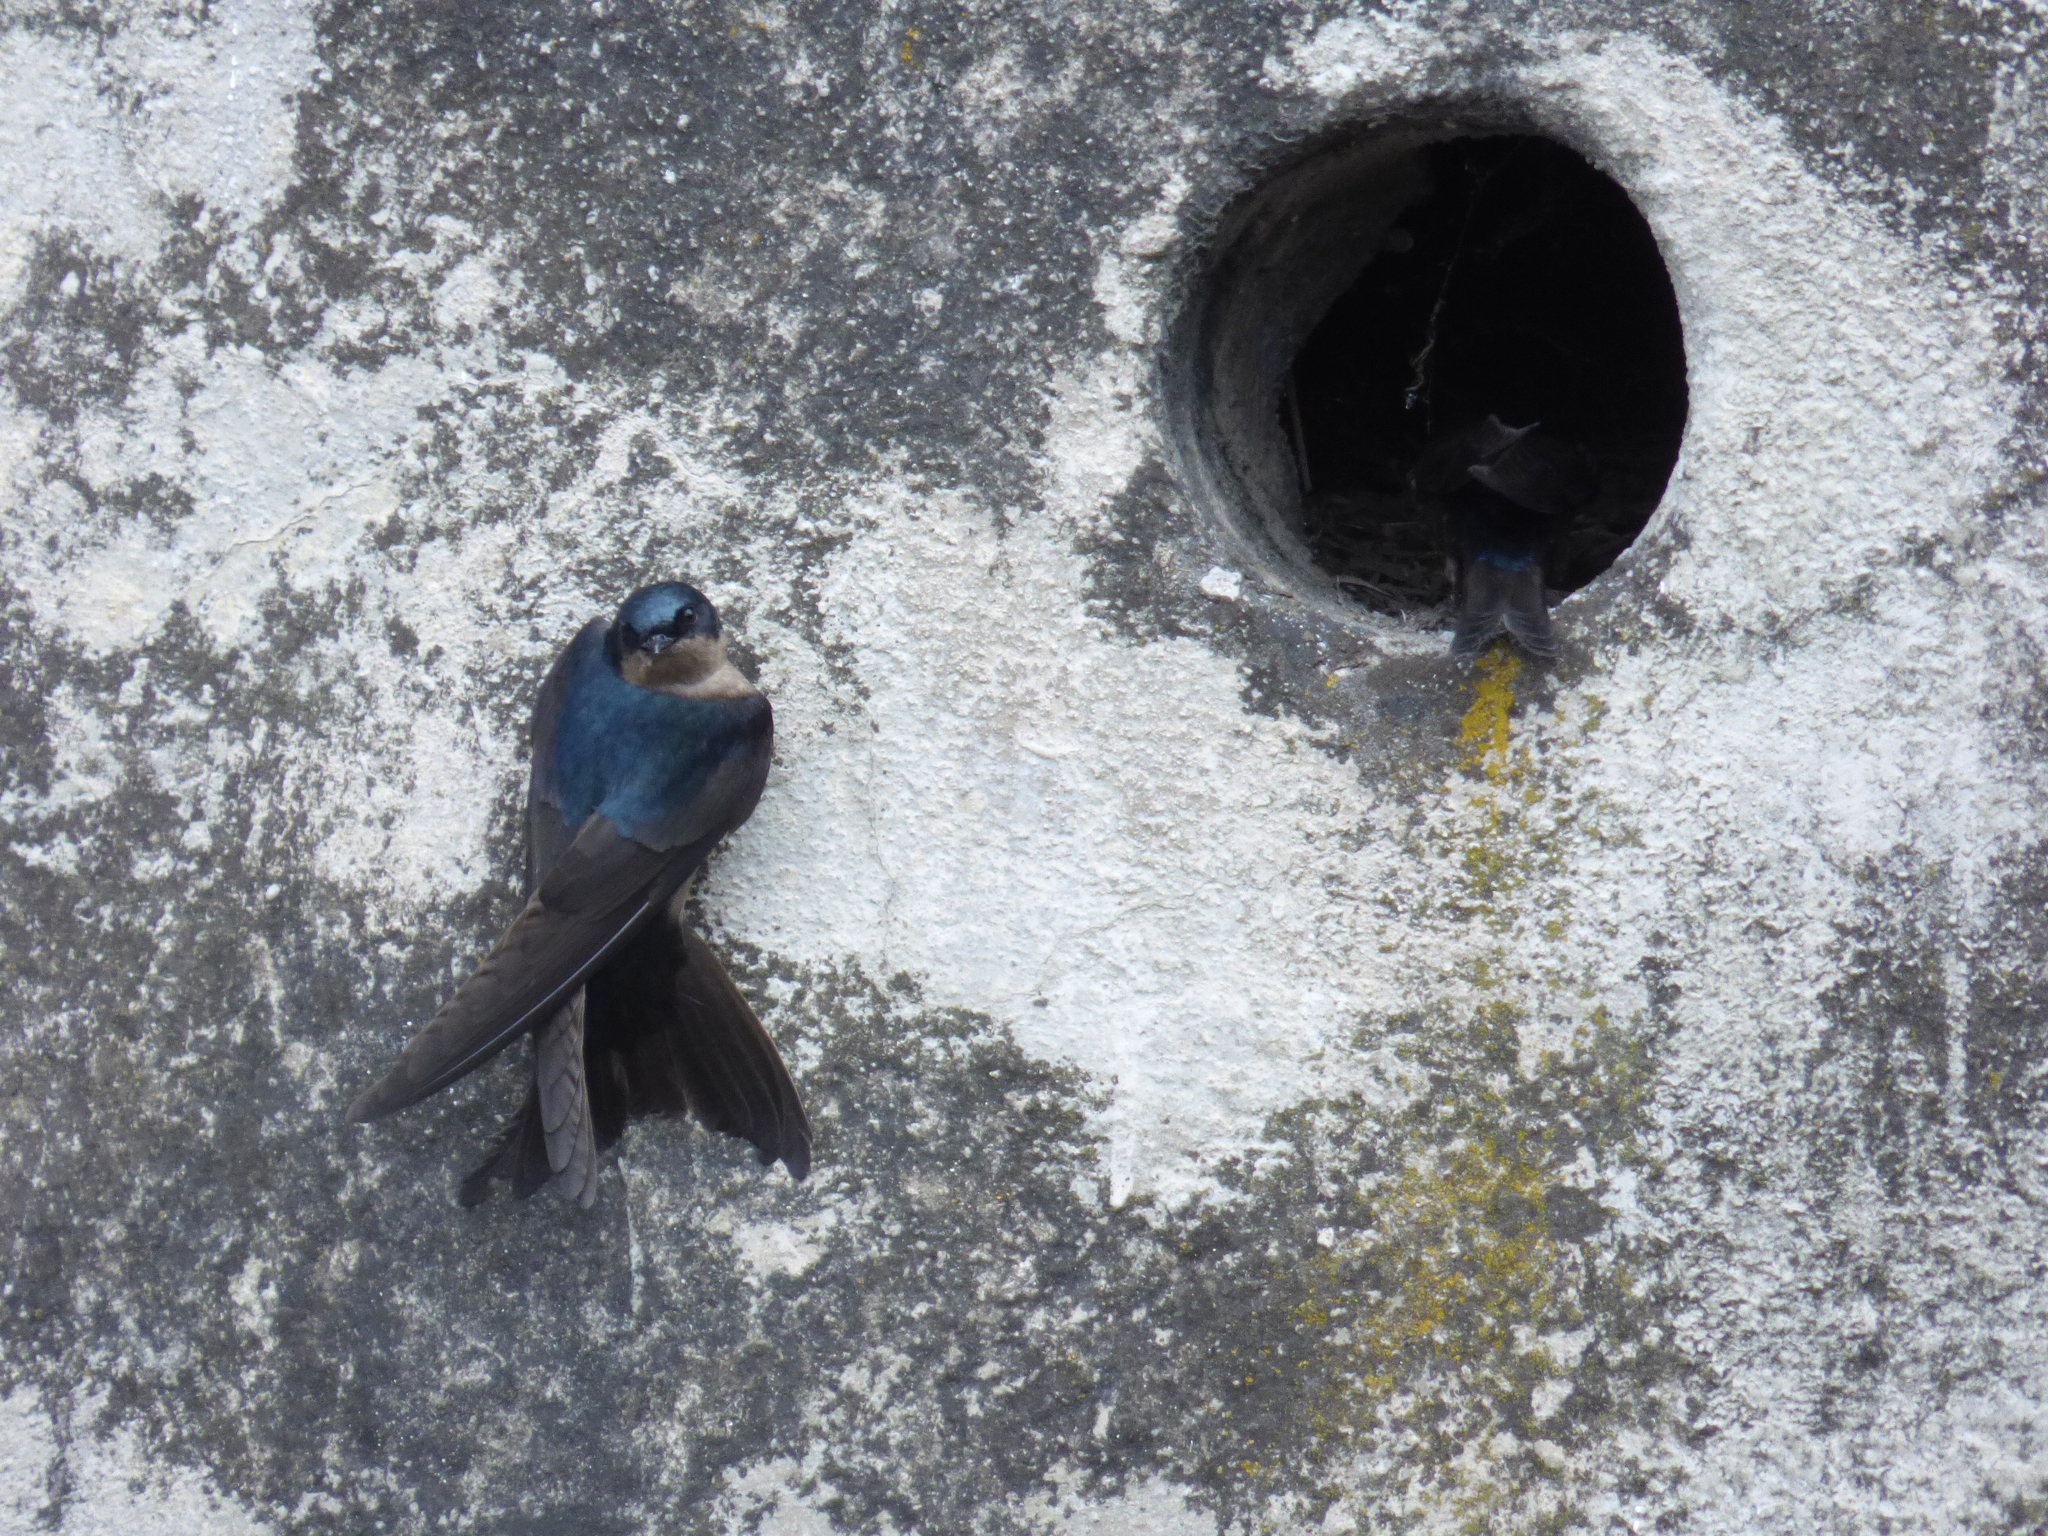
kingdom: Animalia
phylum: Chordata
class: Aves
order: Passeriformes
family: Hirundinidae
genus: Notiochelidon
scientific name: Notiochelidon murina
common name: Brown-bellied swallow
